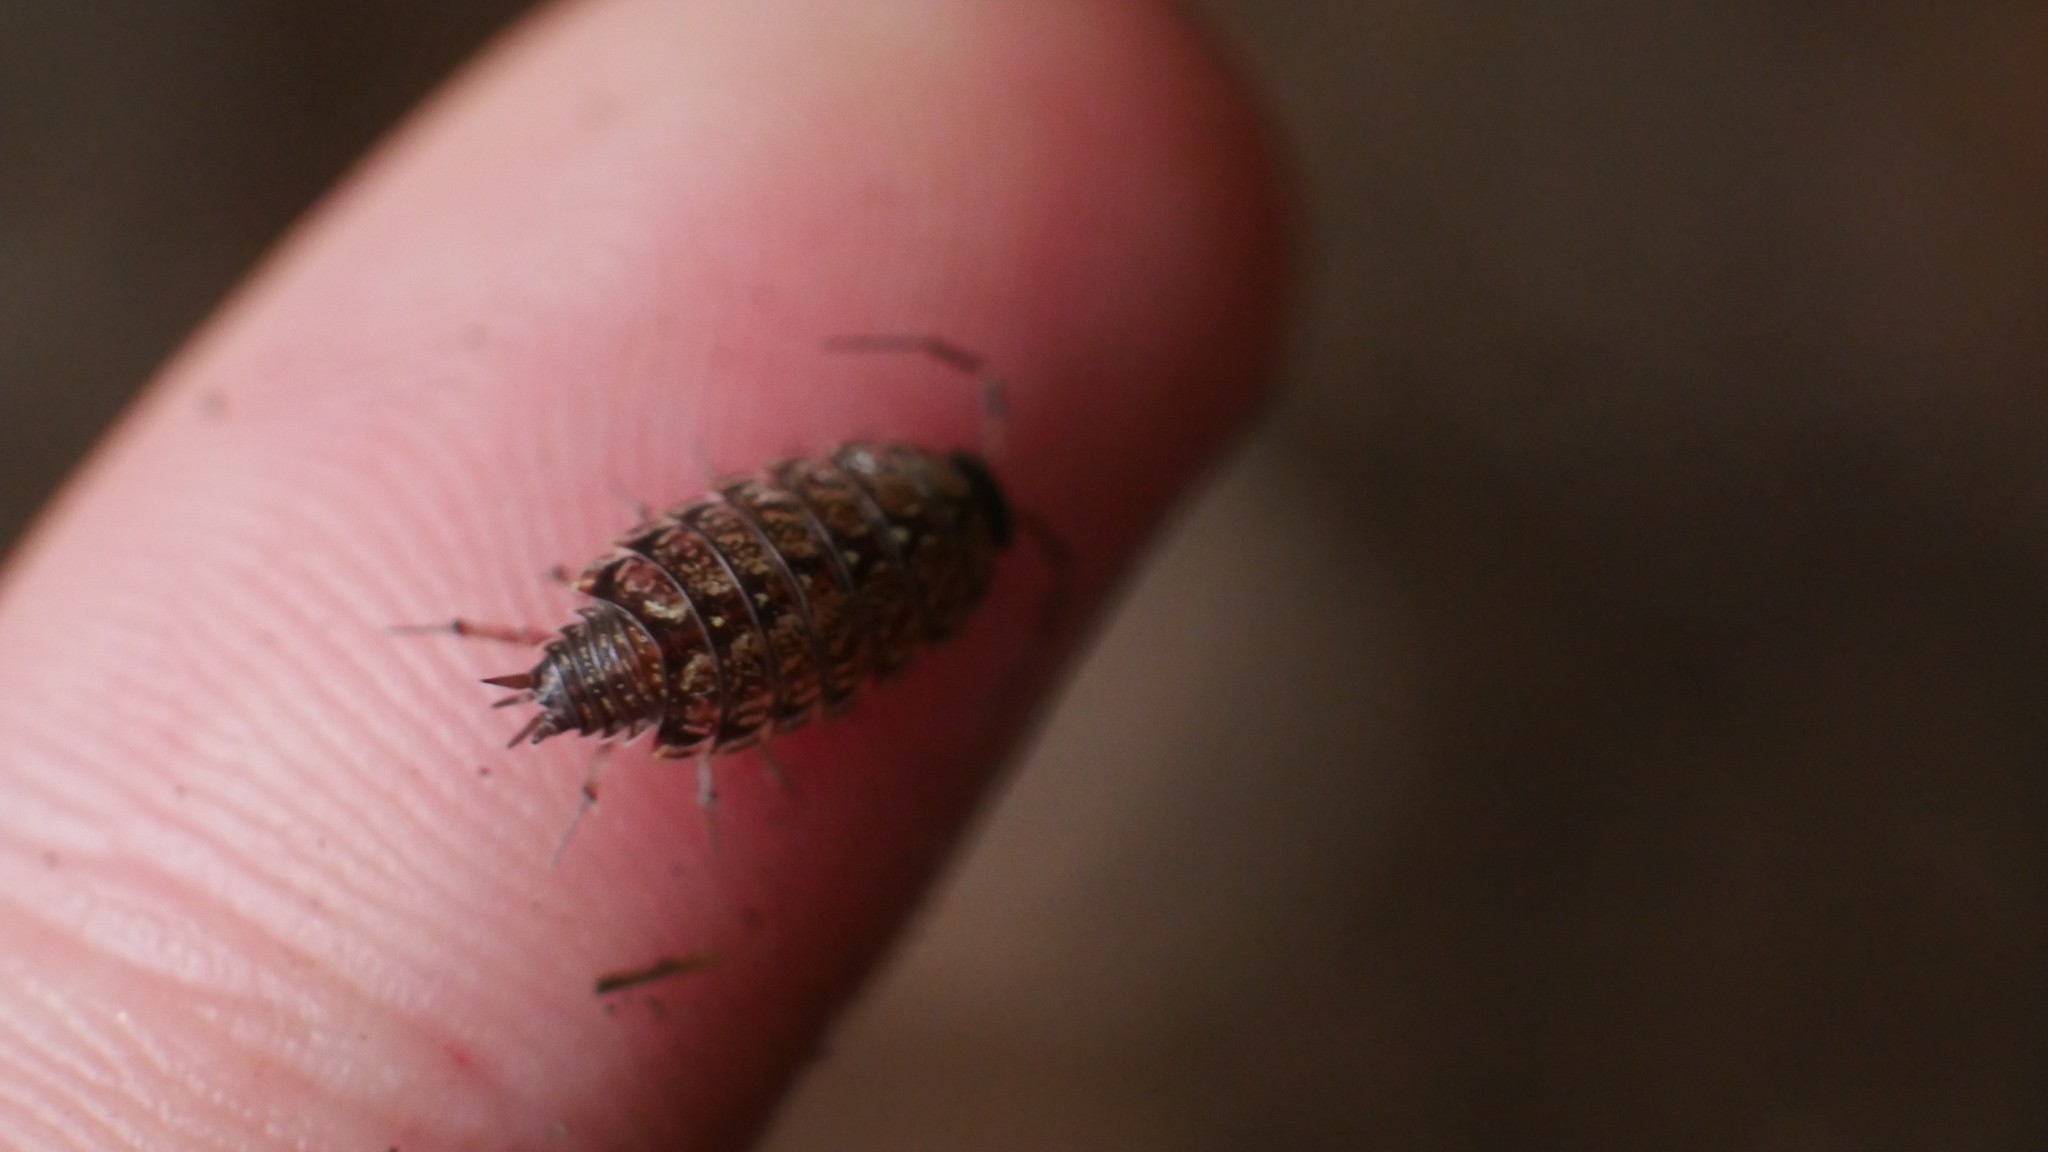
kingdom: Animalia
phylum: Arthropoda
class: Malacostraca
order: Isopoda
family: Philosciidae
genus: Philoscia
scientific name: Philoscia muscorum
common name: Common striped woodlouse
